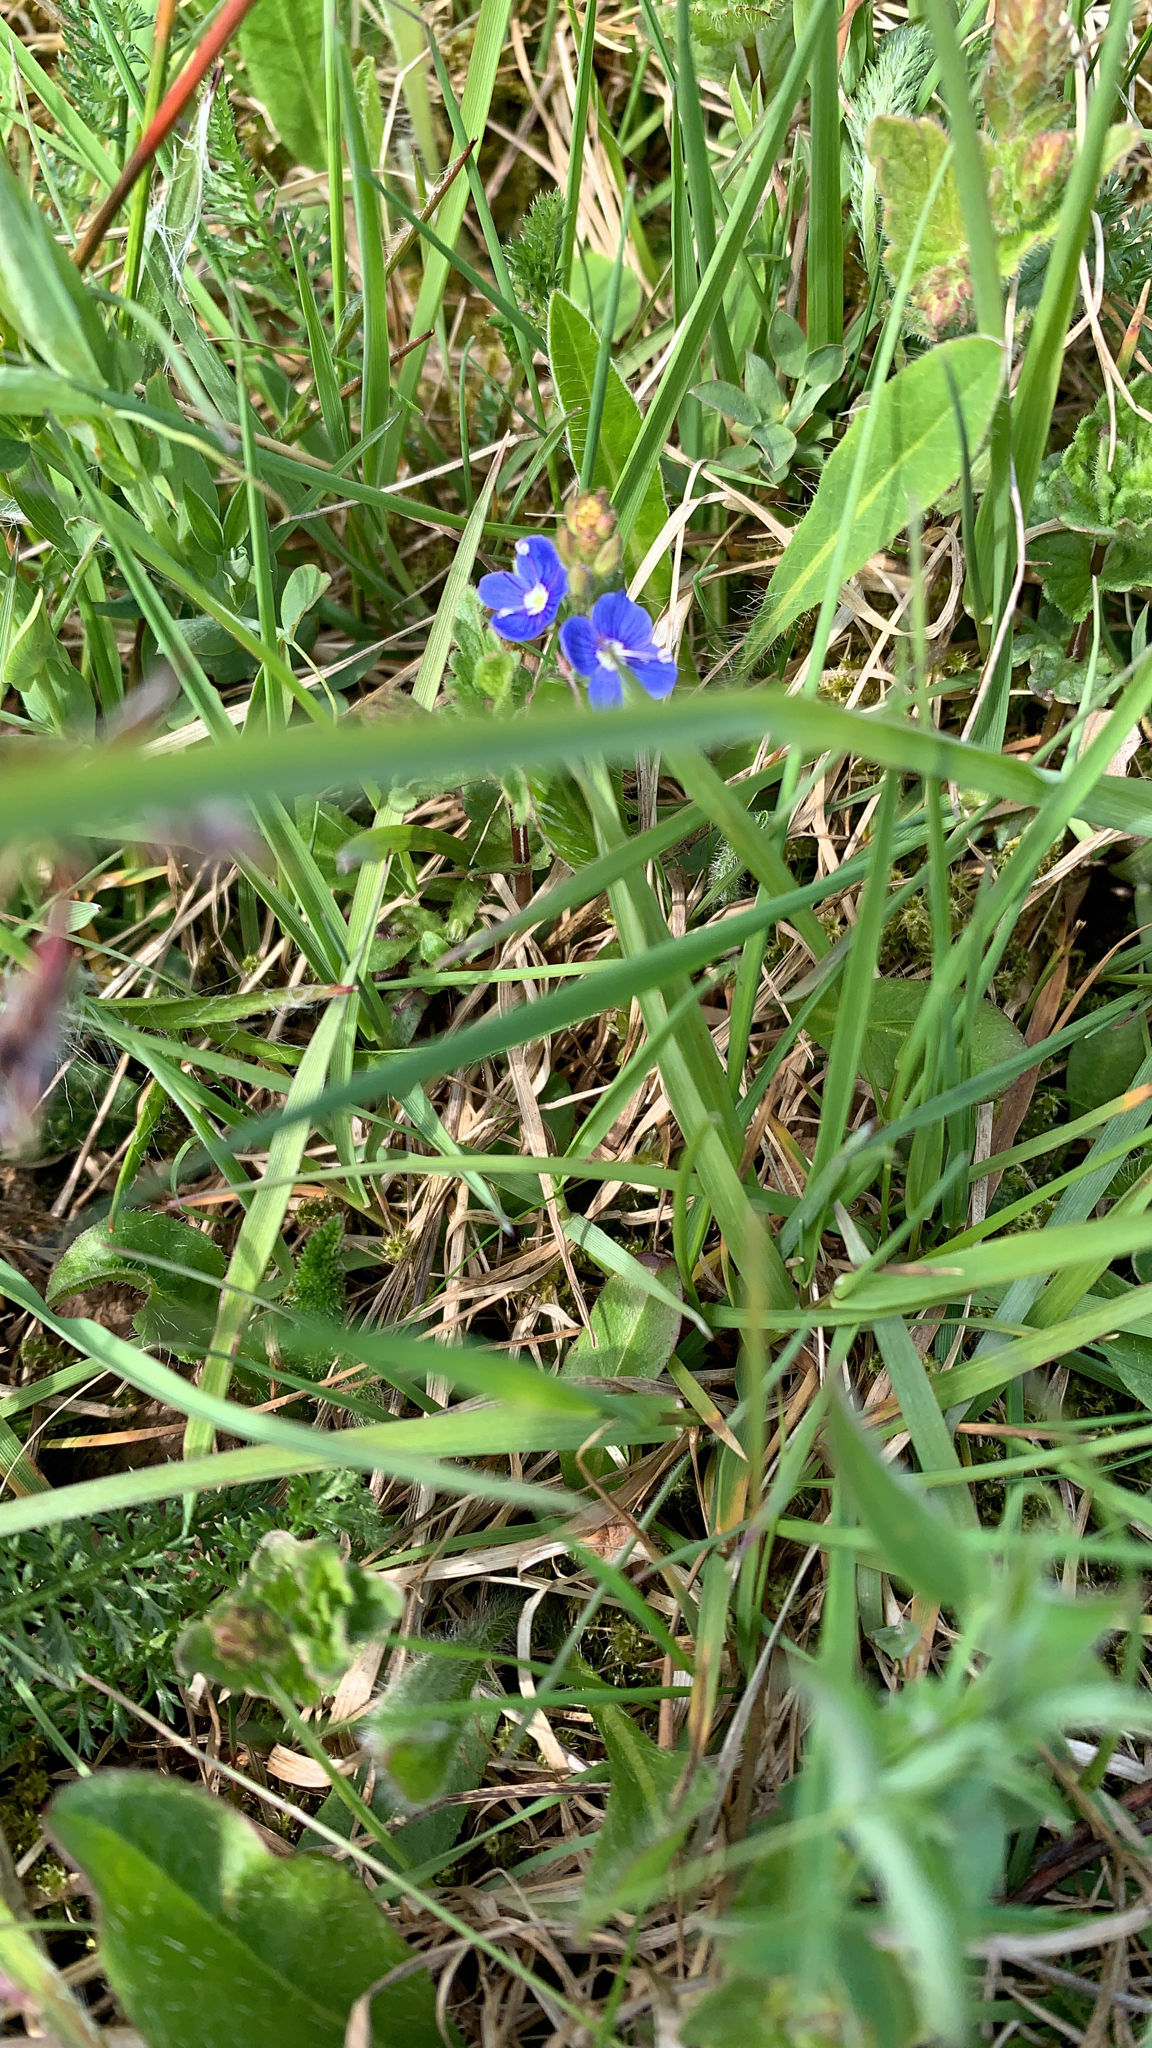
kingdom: Plantae
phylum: Tracheophyta
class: Magnoliopsida
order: Lamiales
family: Plantaginaceae
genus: Veronica
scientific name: Veronica chamaedrys
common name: Germander speedwell
